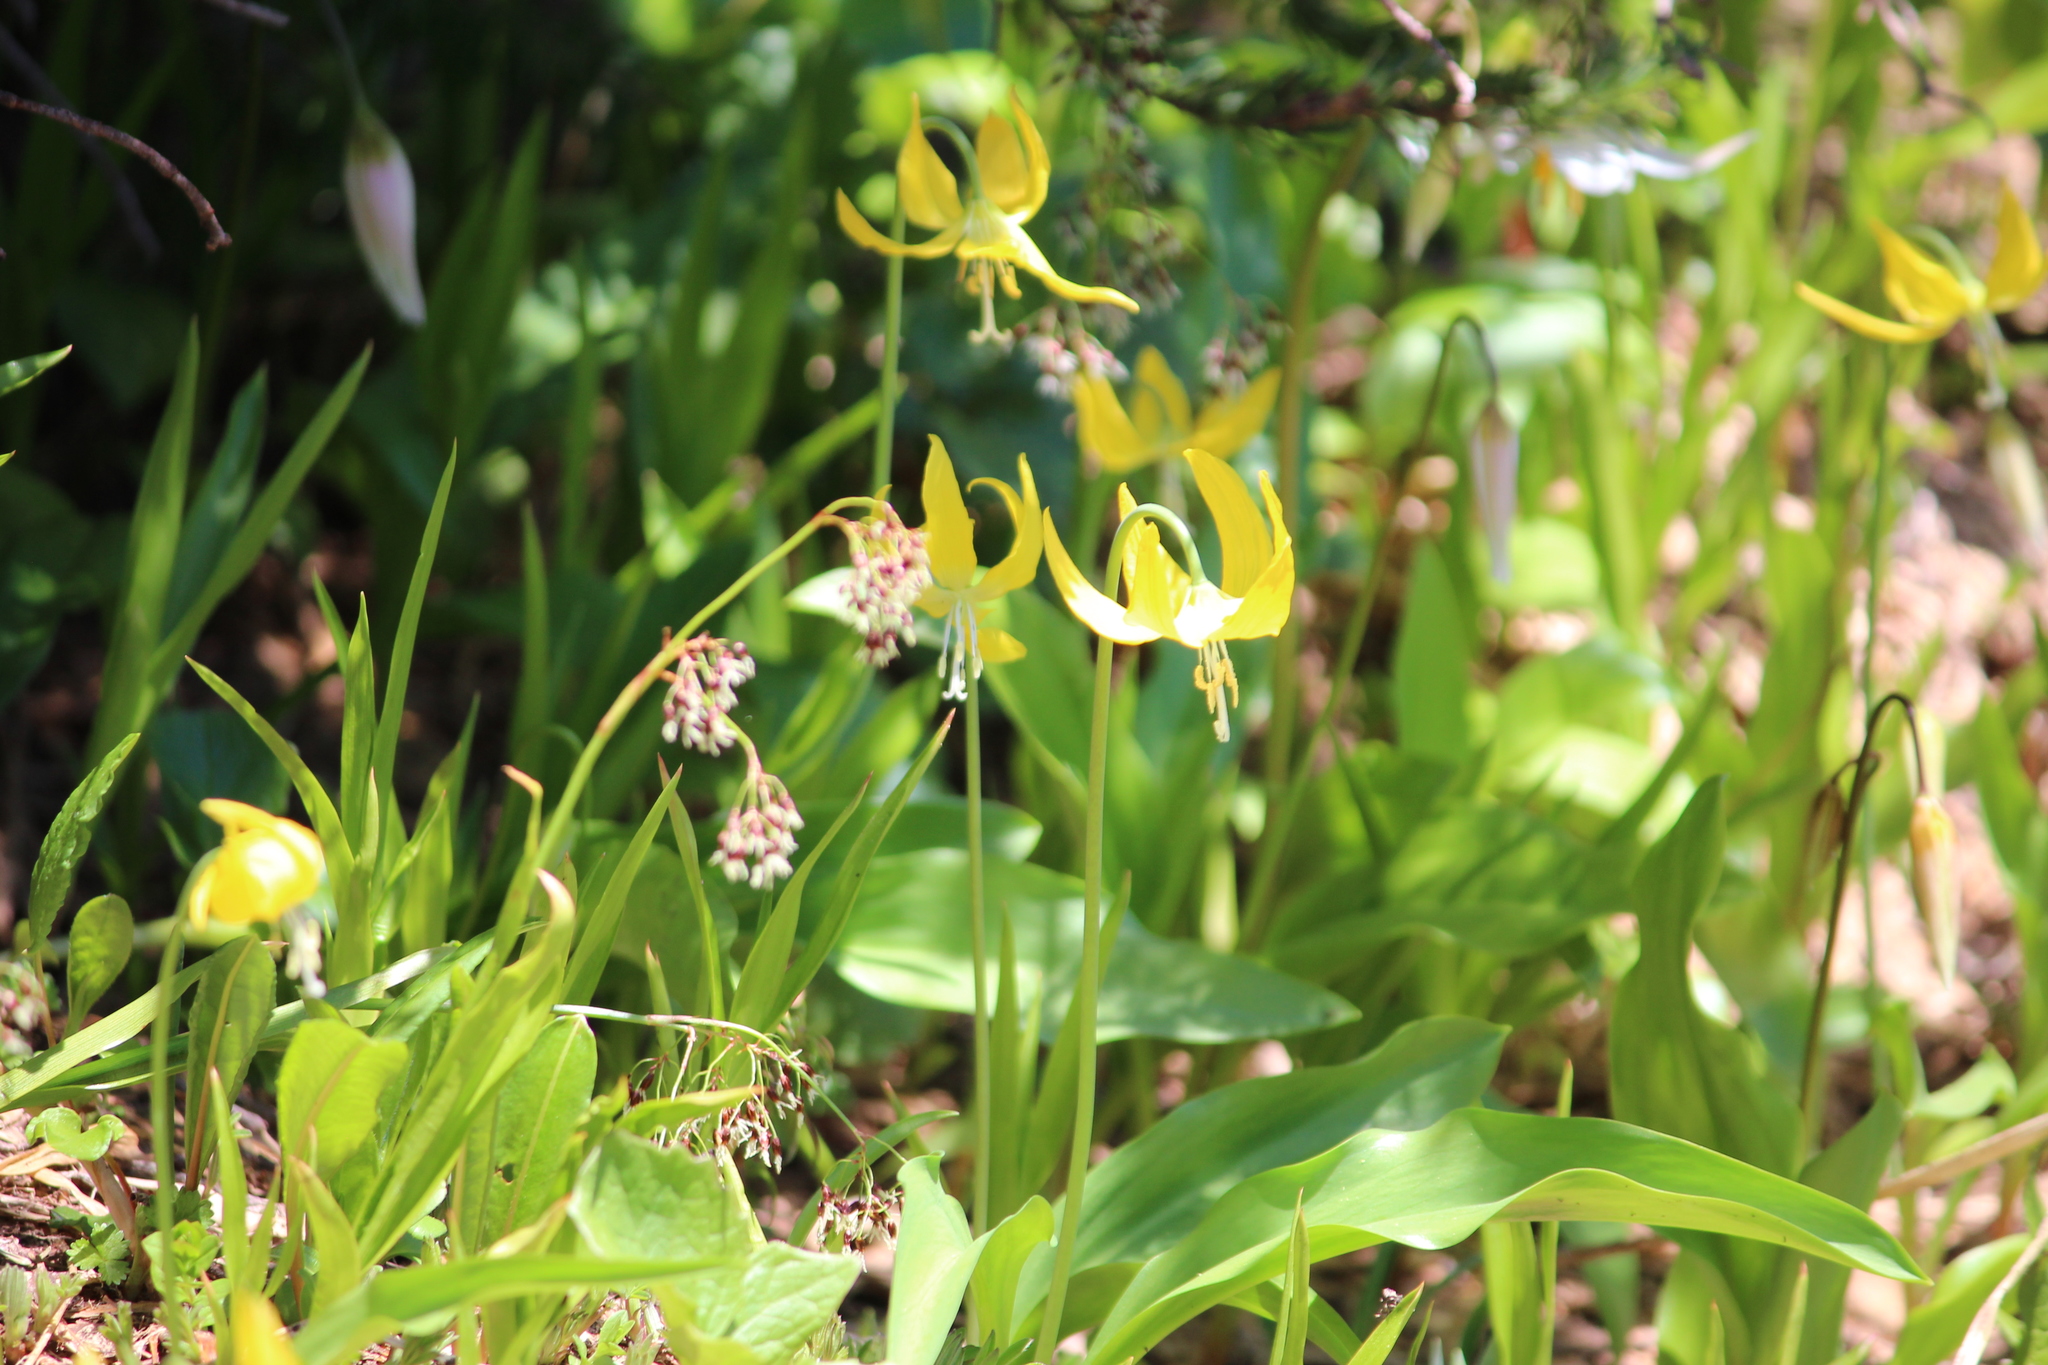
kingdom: Plantae
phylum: Tracheophyta
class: Liliopsida
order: Liliales
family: Liliaceae
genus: Erythronium
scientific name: Erythronium grandiflorum
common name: Avalanche-lily
